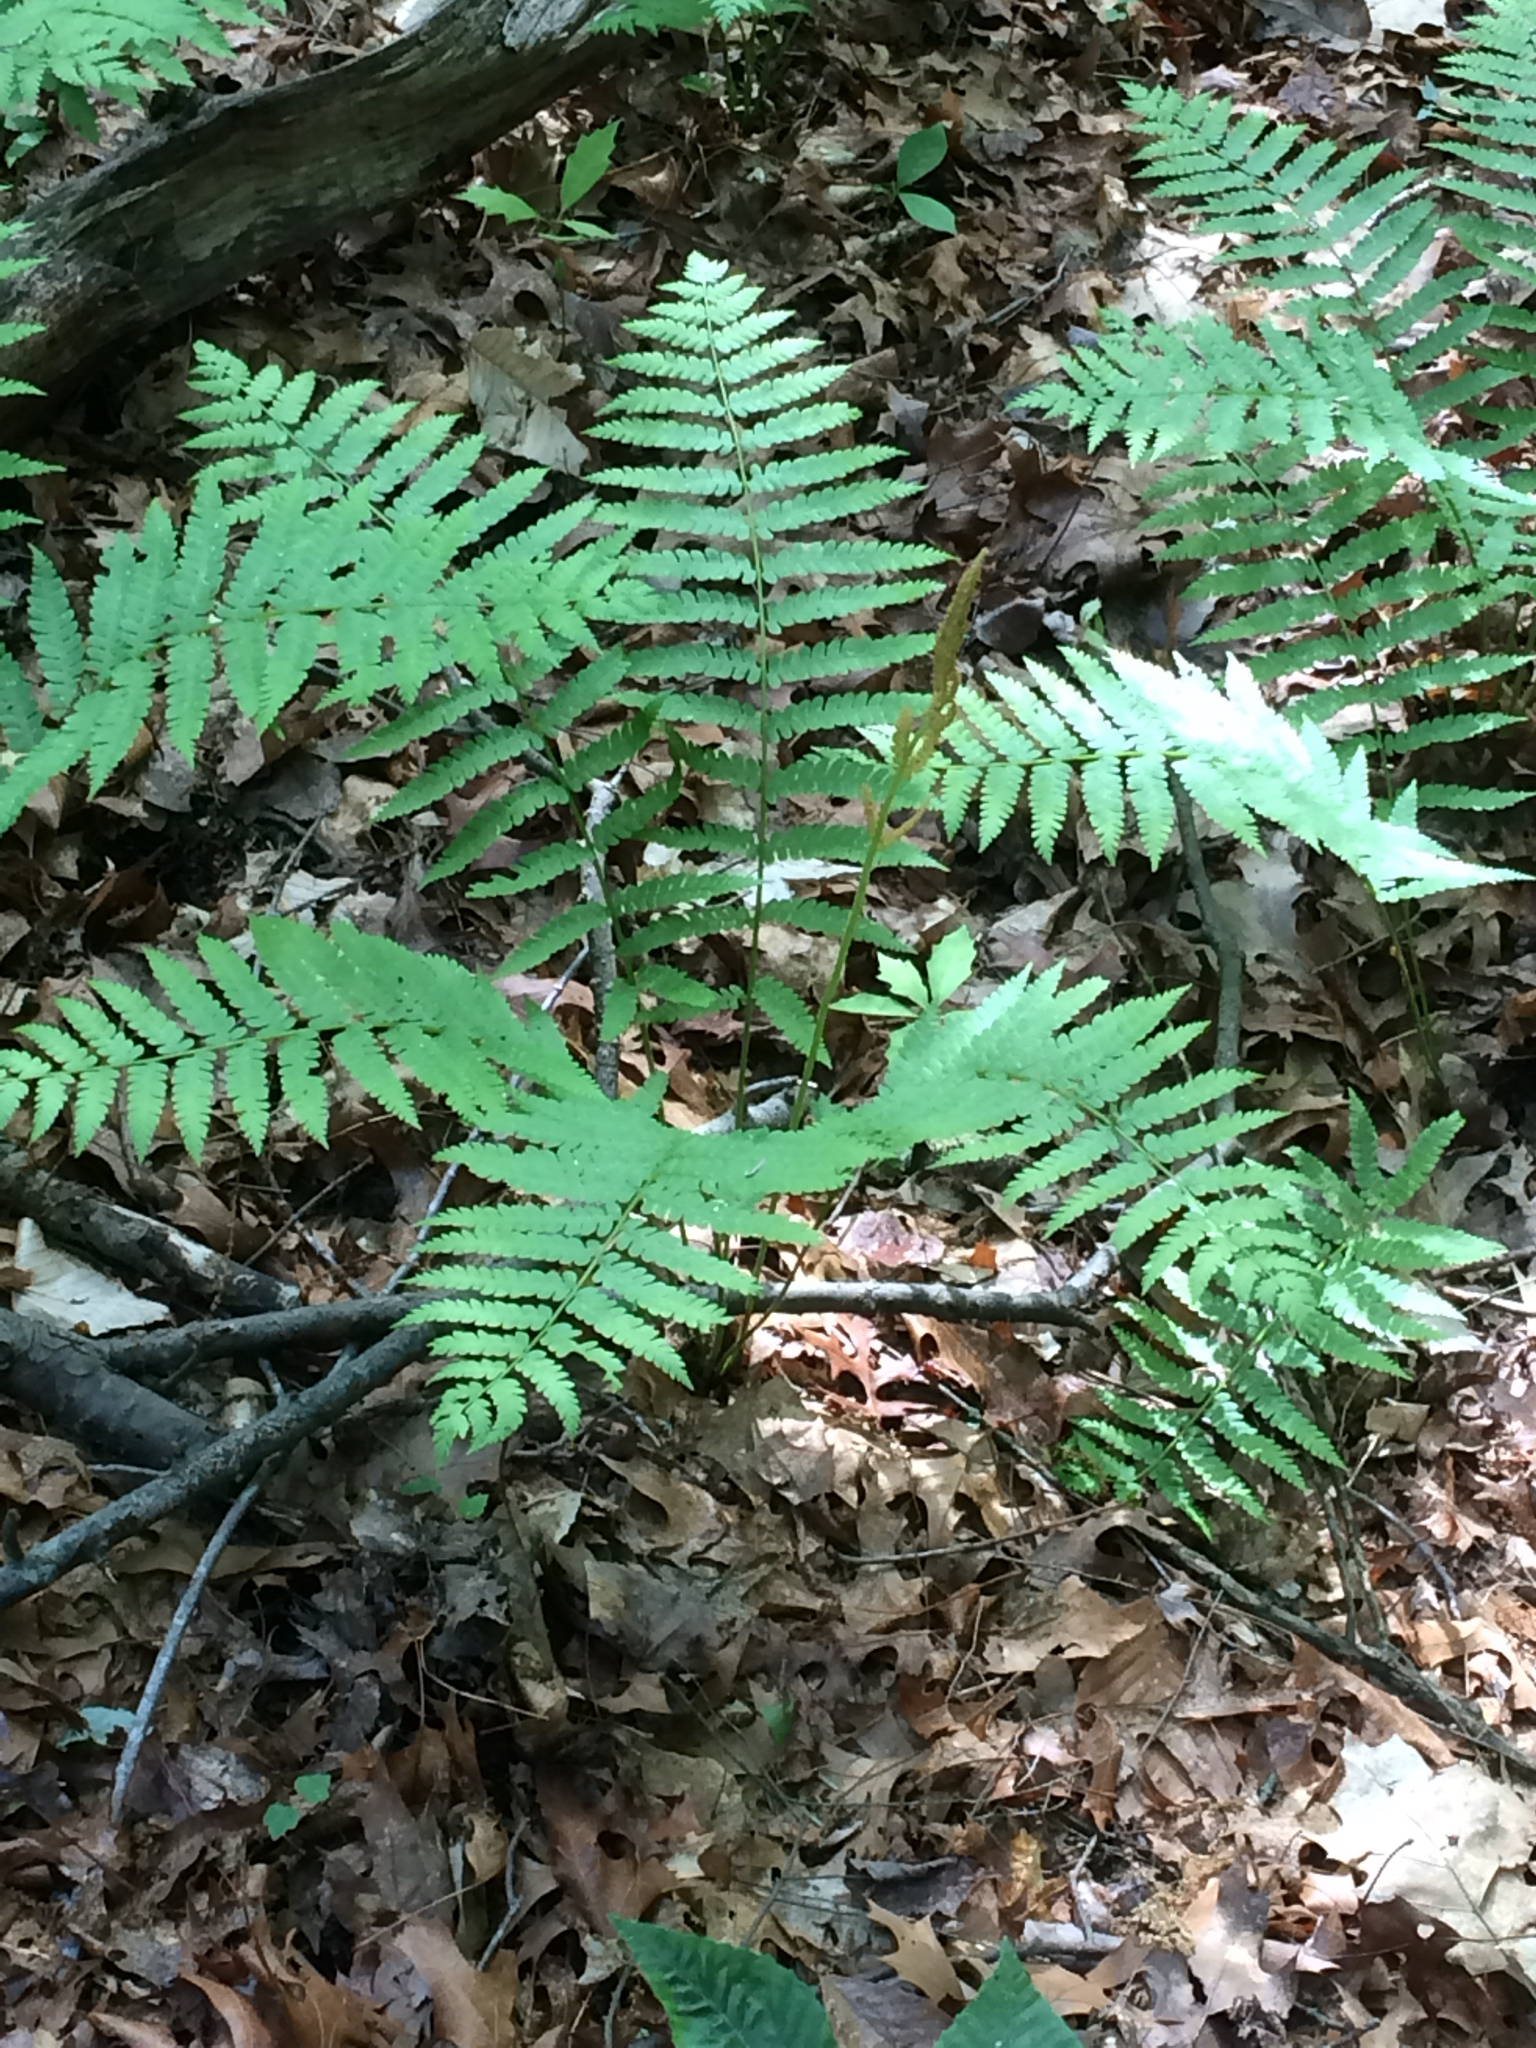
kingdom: Plantae
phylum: Tracheophyta
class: Polypodiopsida
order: Osmundales
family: Osmundaceae
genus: Osmundastrum
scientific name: Osmundastrum cinnamomeum
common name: Cinnamon fern
